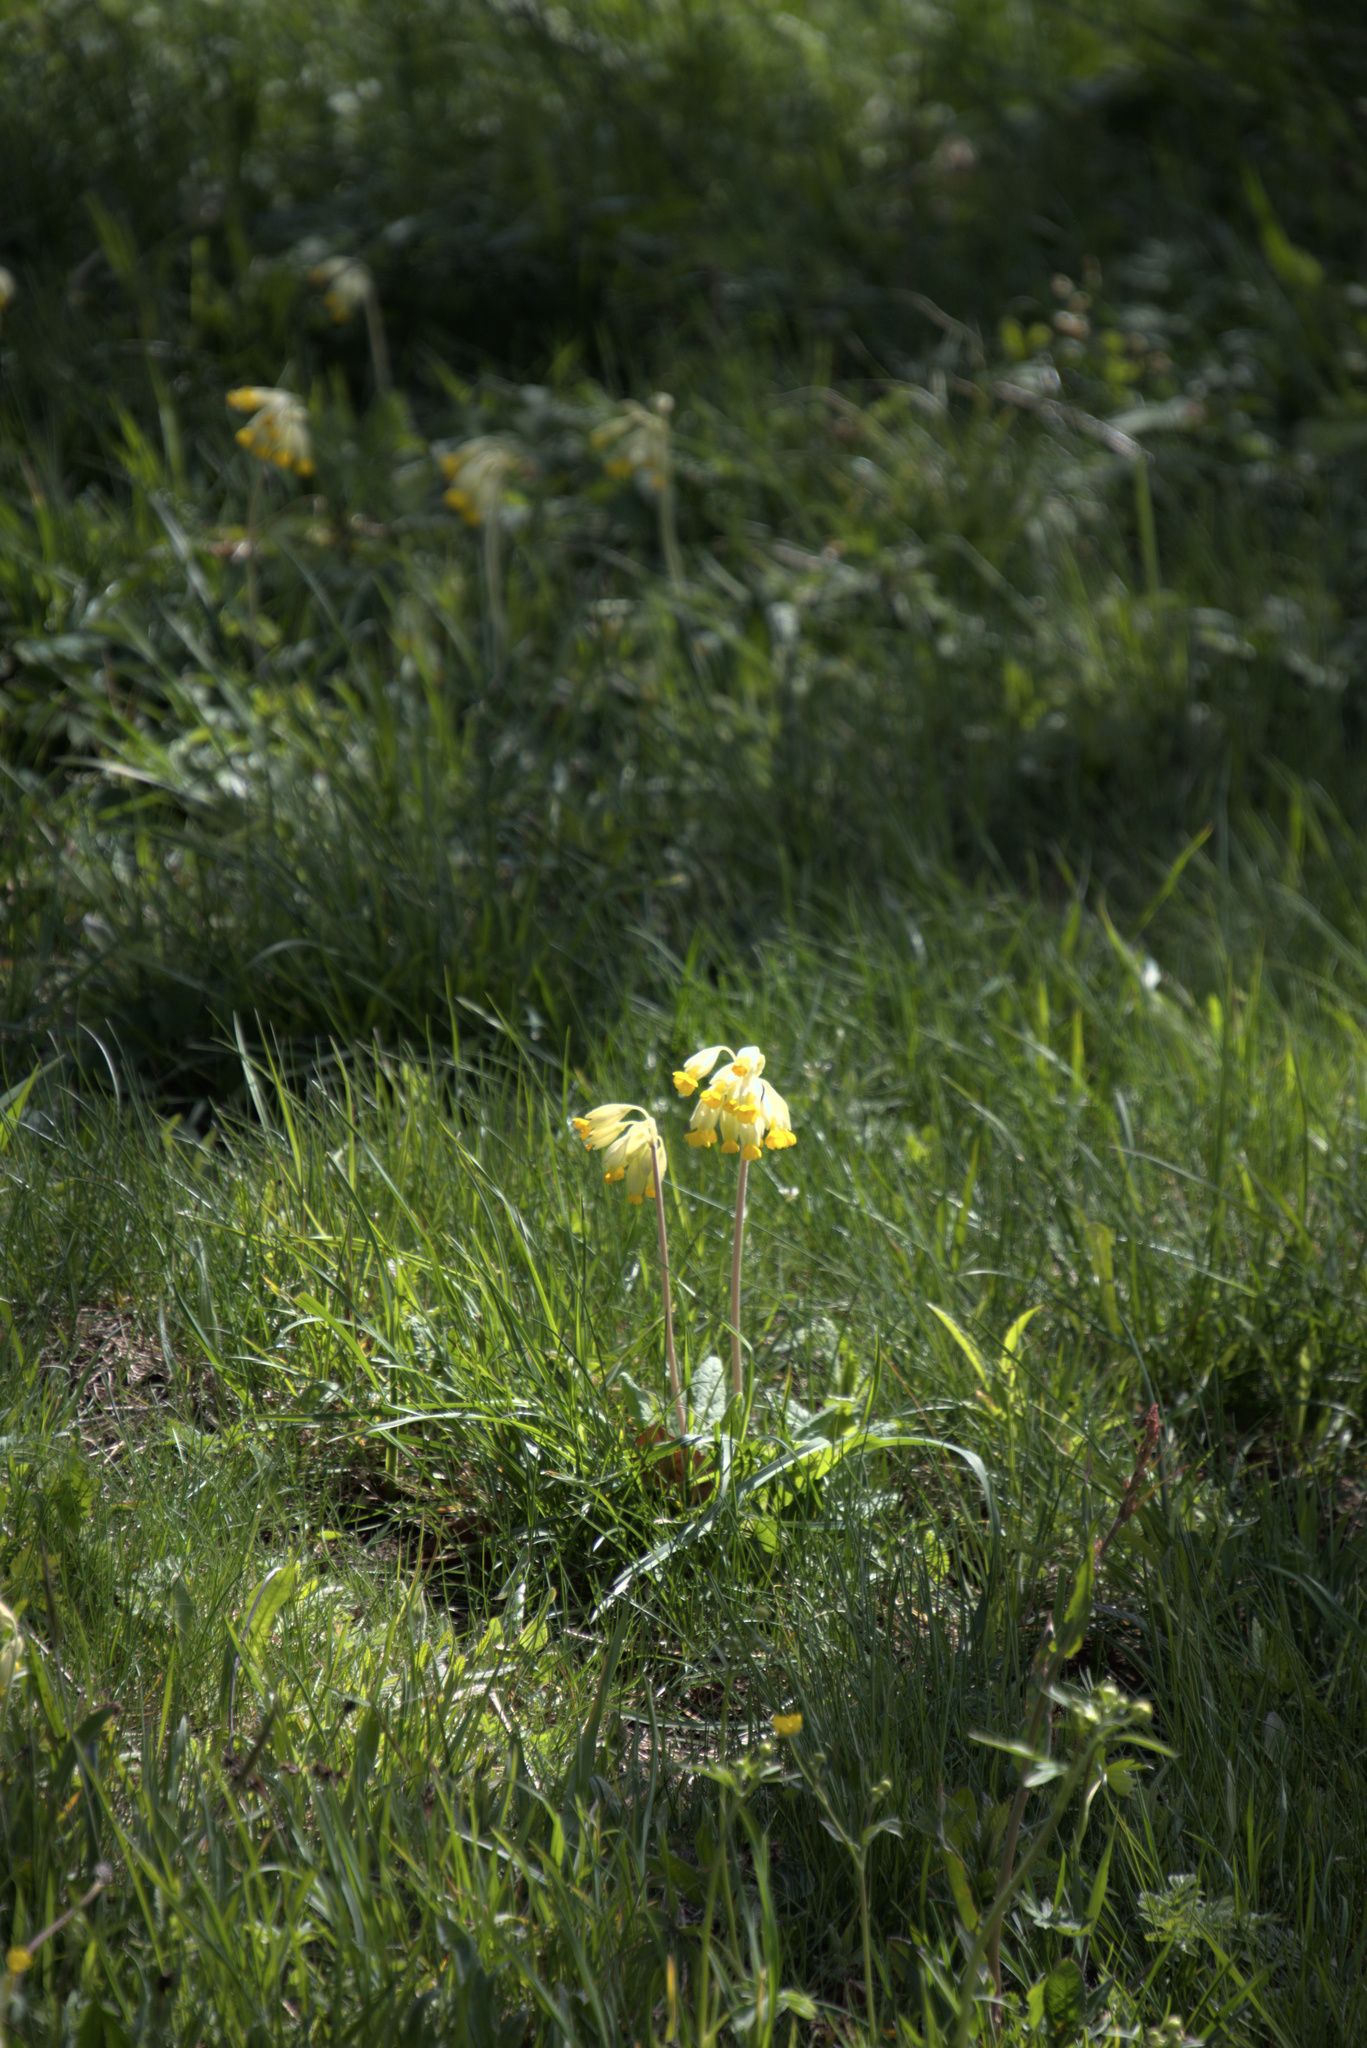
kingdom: Plantae
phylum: Tracheophyta
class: Magnoliopsida
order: Ericales
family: Primulaceae
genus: Primula
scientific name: Primula veris
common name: Cowslip
